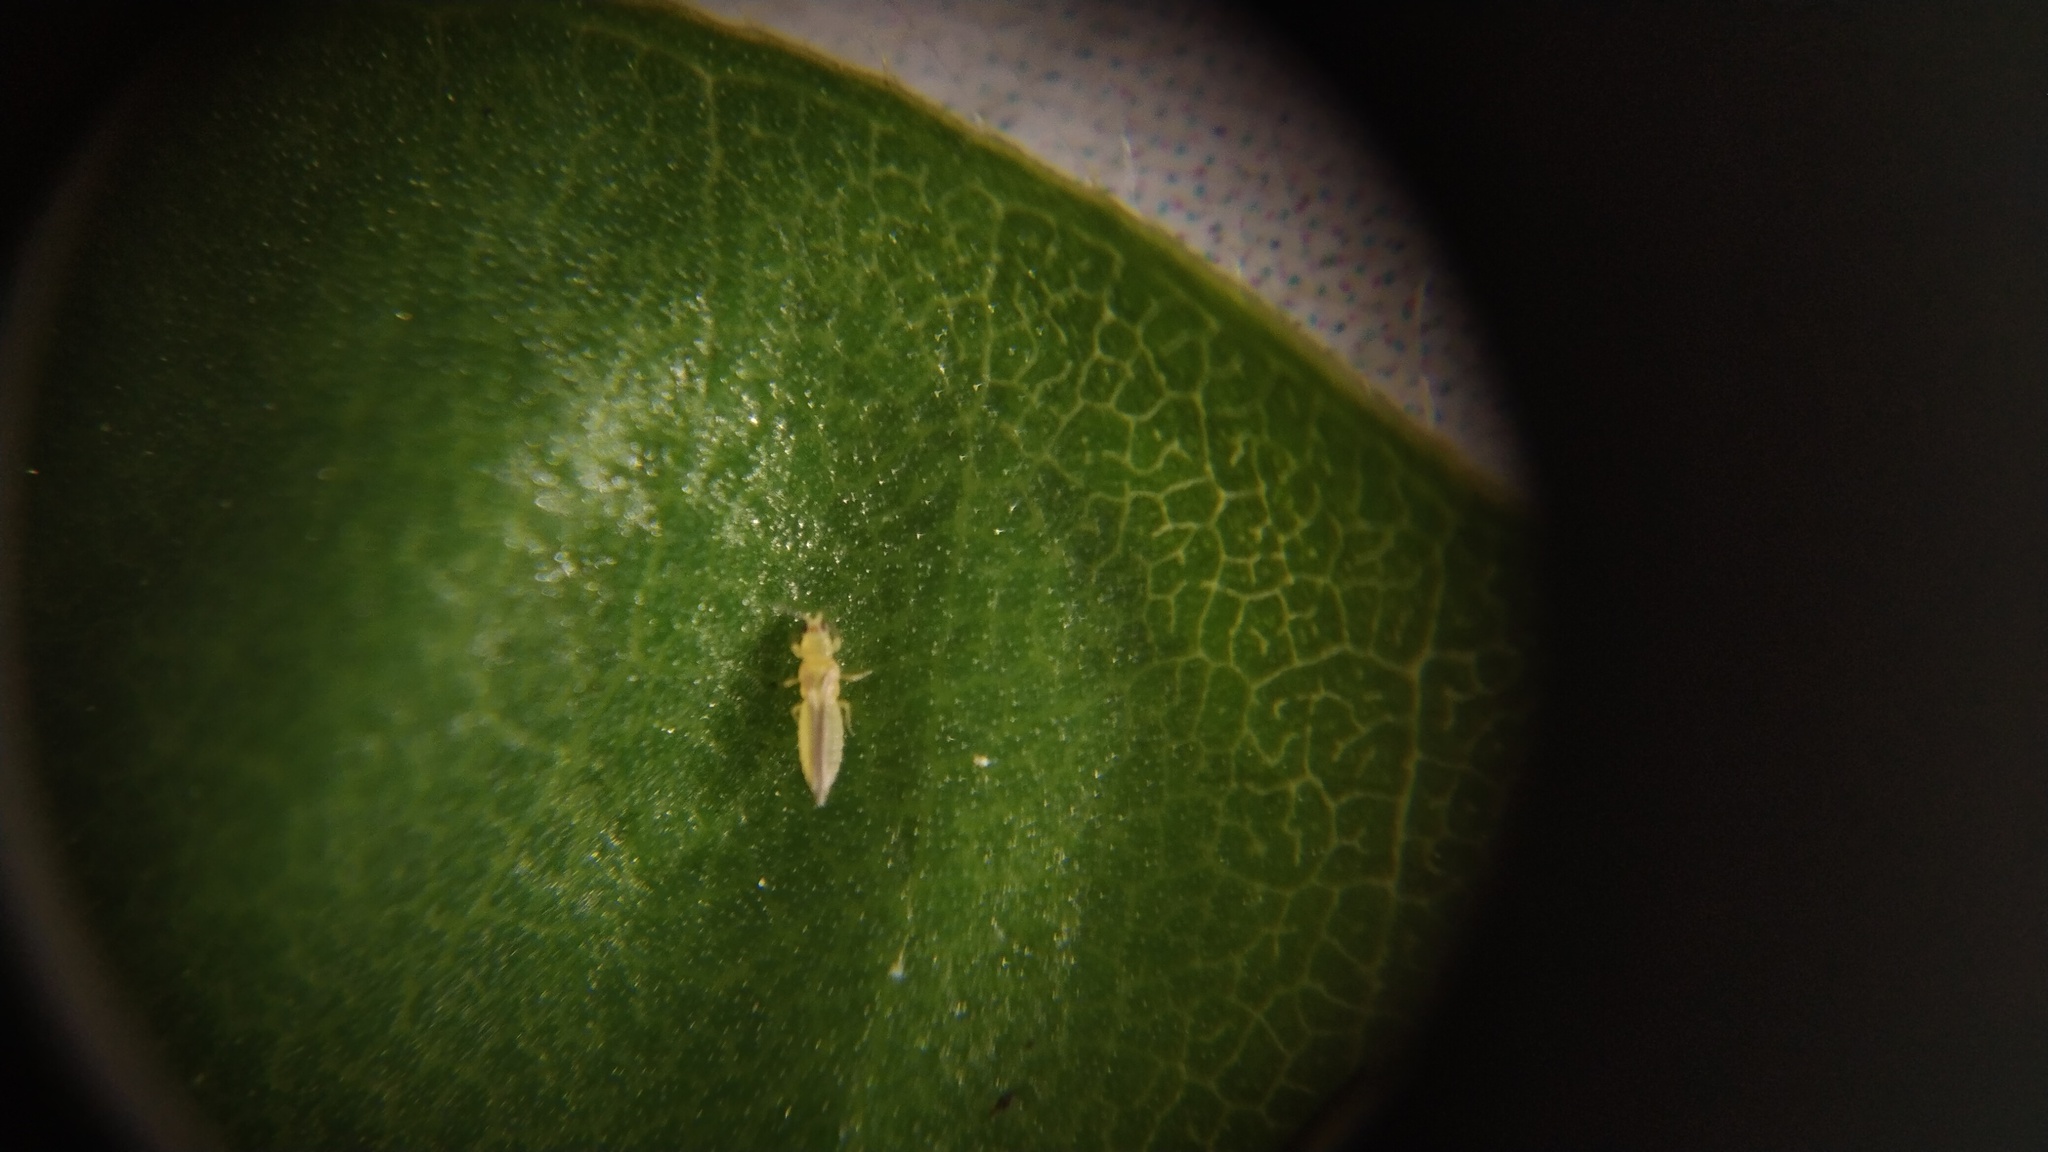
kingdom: Animalia
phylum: Arthropoda
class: Insecta
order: Thysanoptera
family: Thripidae
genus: Scirtothrips
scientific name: Scirtothrips dorsalis
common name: Thrips
